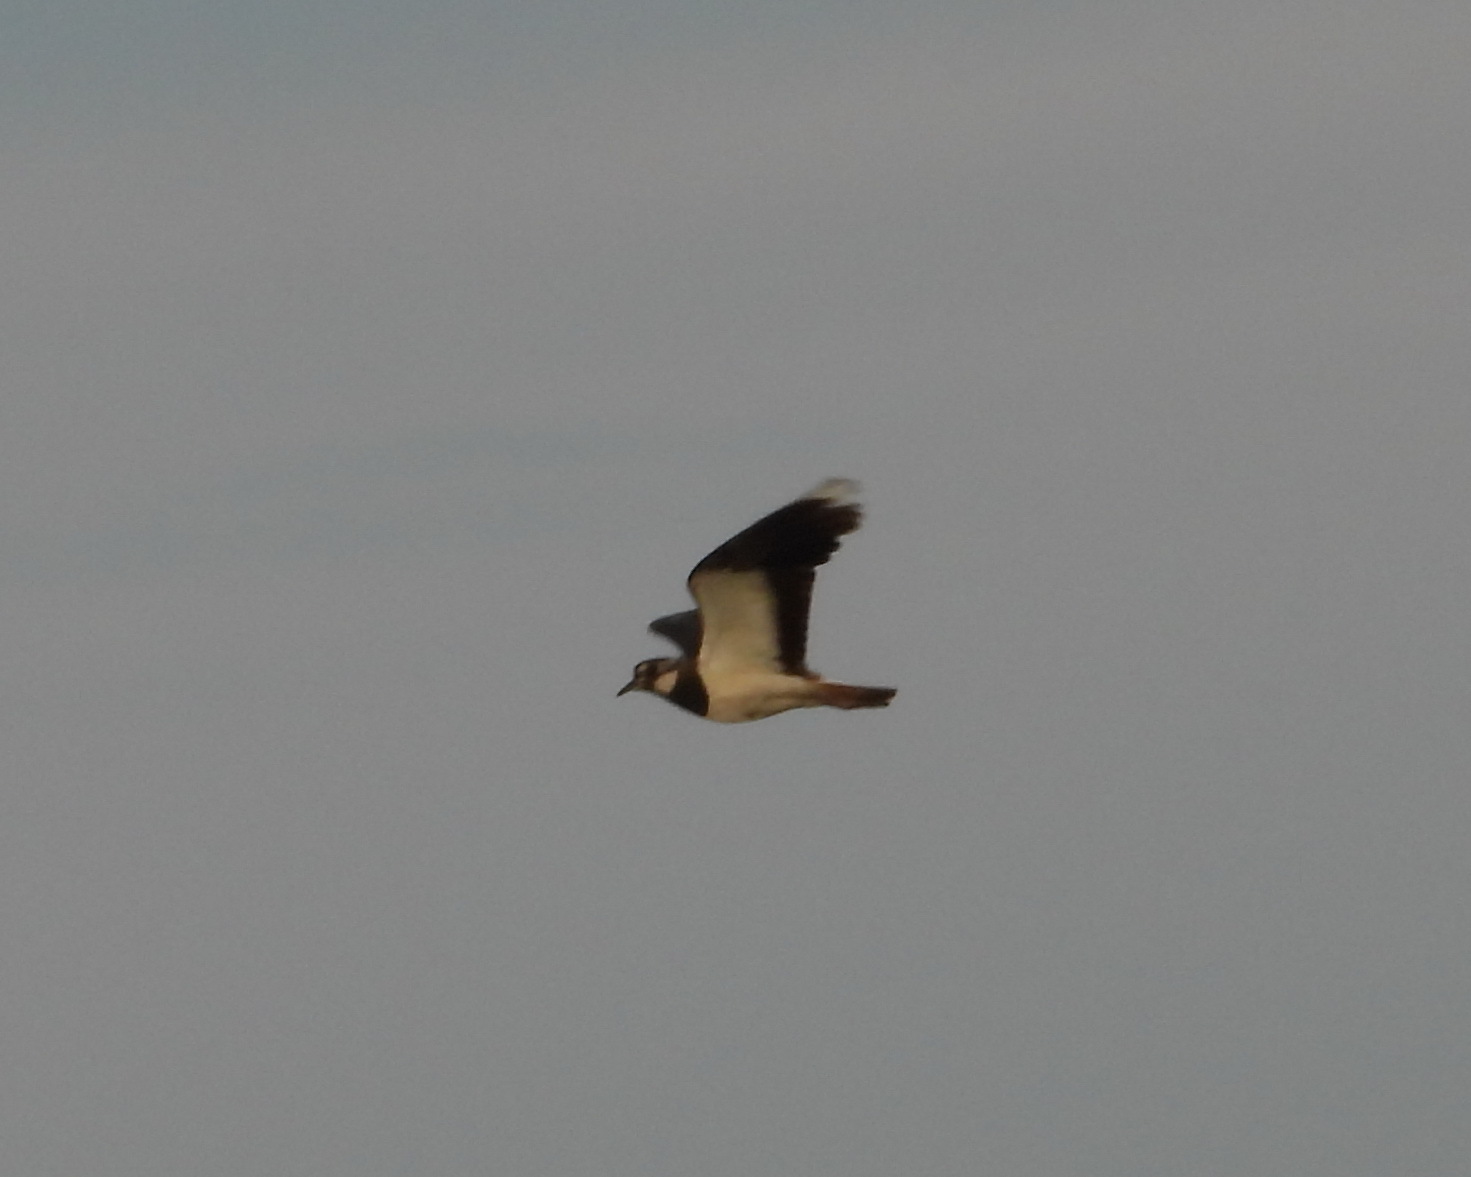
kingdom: Animalia
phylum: Chordata
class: Aves
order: Charadriiformes
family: Charadriidae
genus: Vanellus
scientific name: Vanellus vanellus
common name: Northern lapwing
